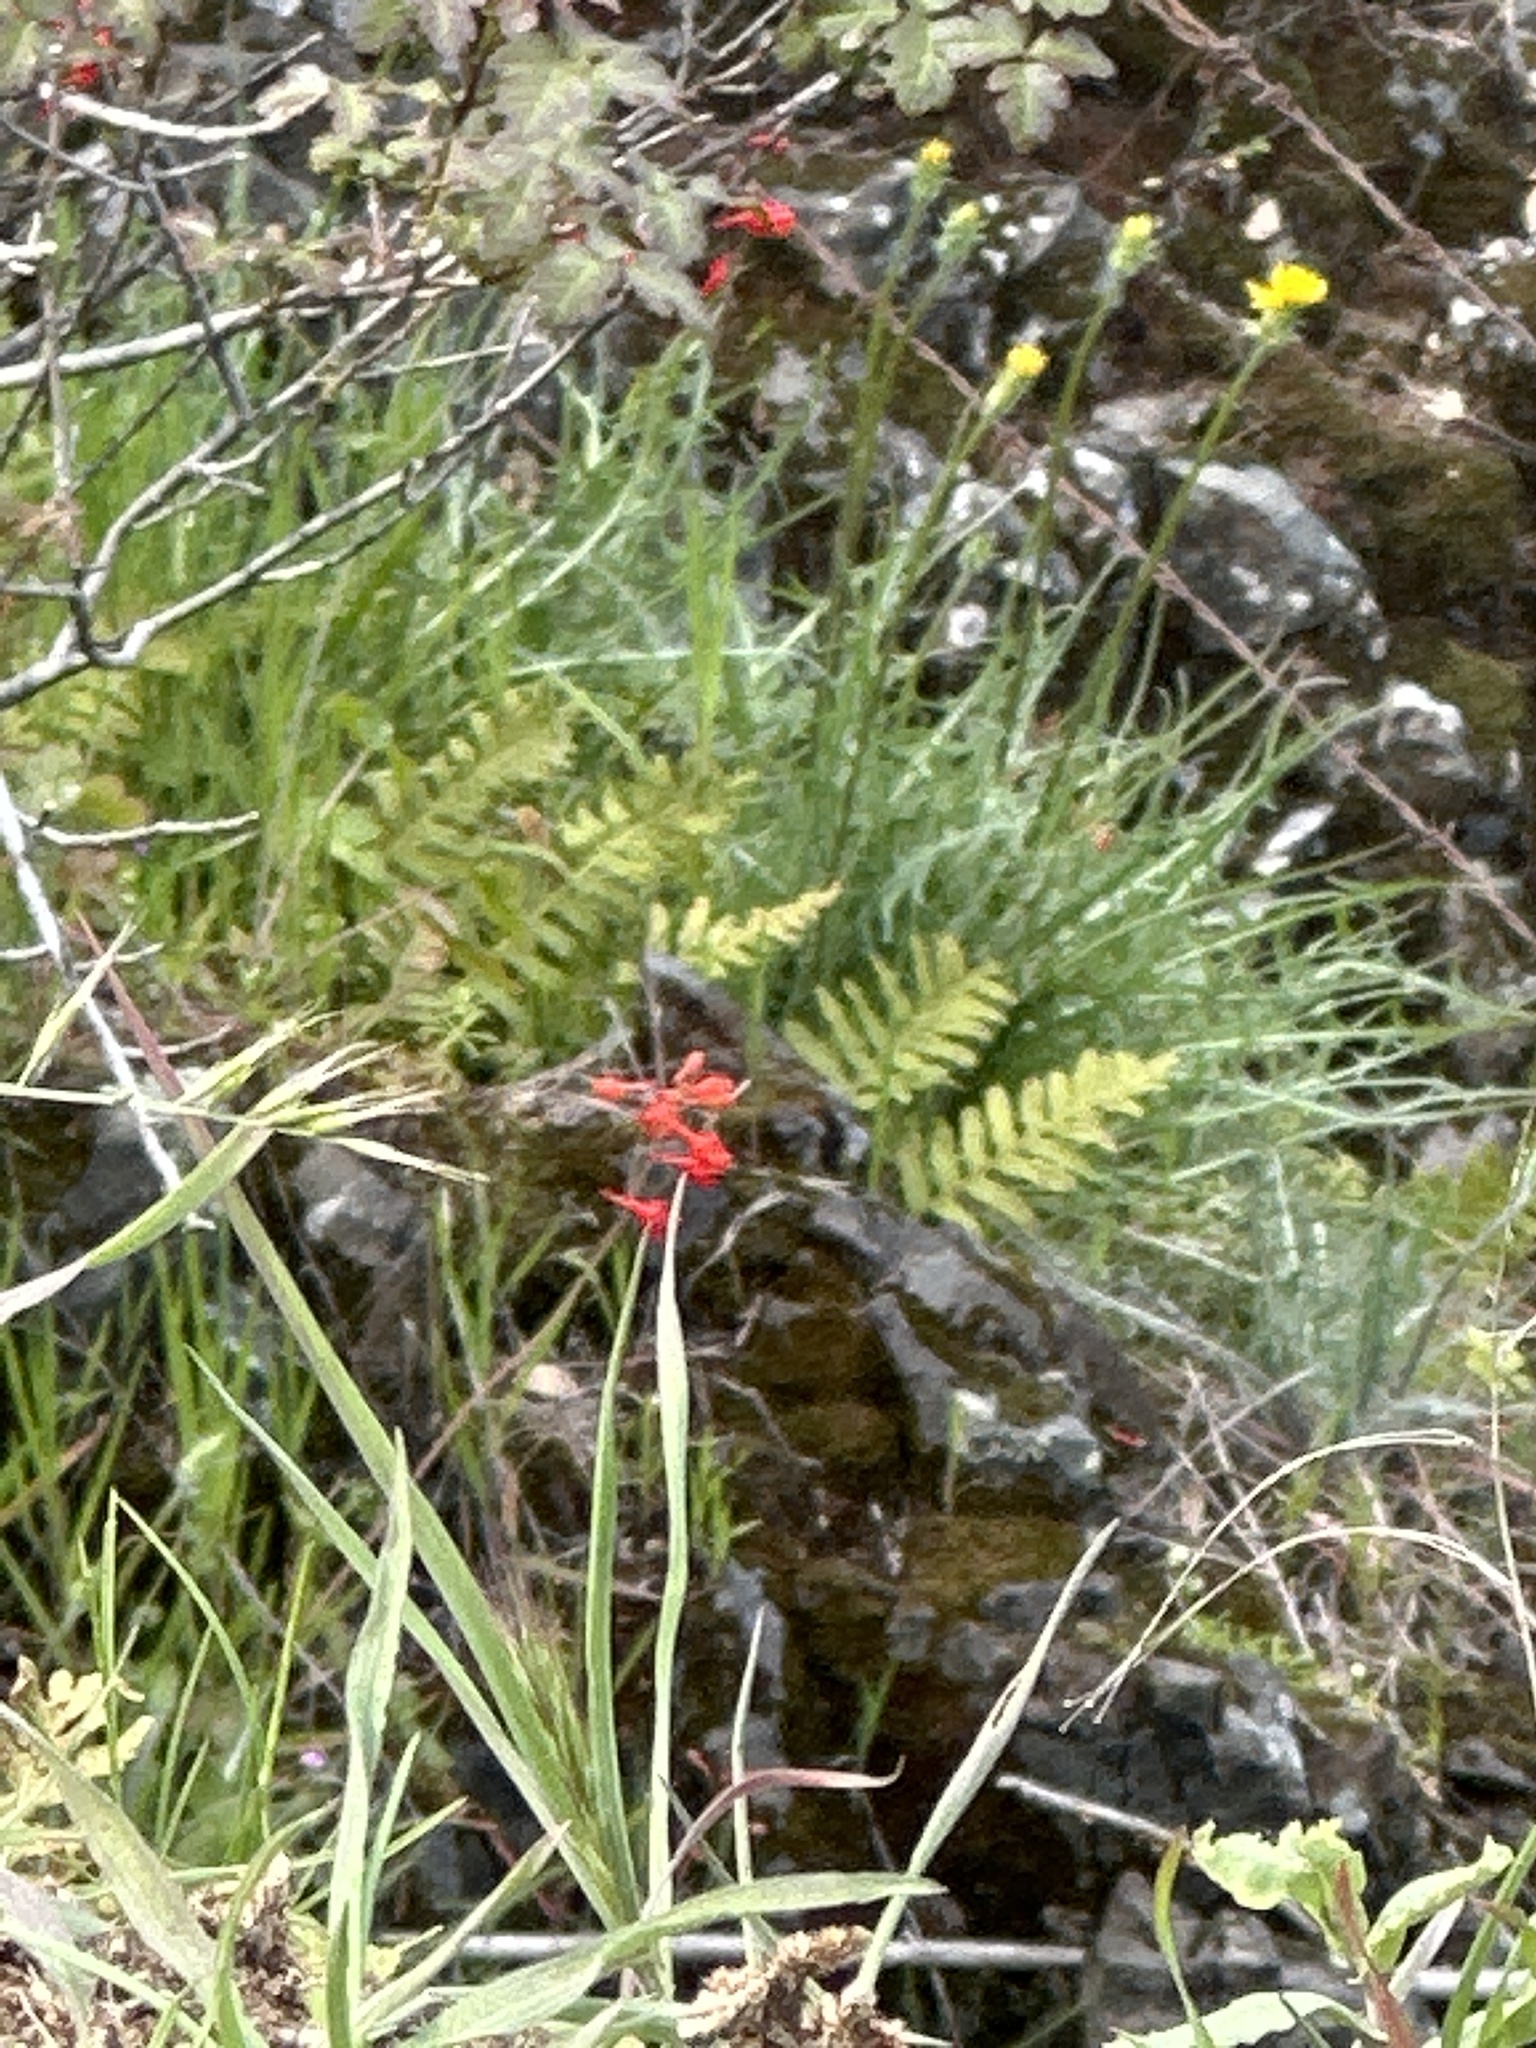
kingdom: Plantae
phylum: Tracheophyta
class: Magnoliopsida
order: Ranunculales
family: Ranunculaceae
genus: Delphinium
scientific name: Delphinium nudicaule
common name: Red larkspur
